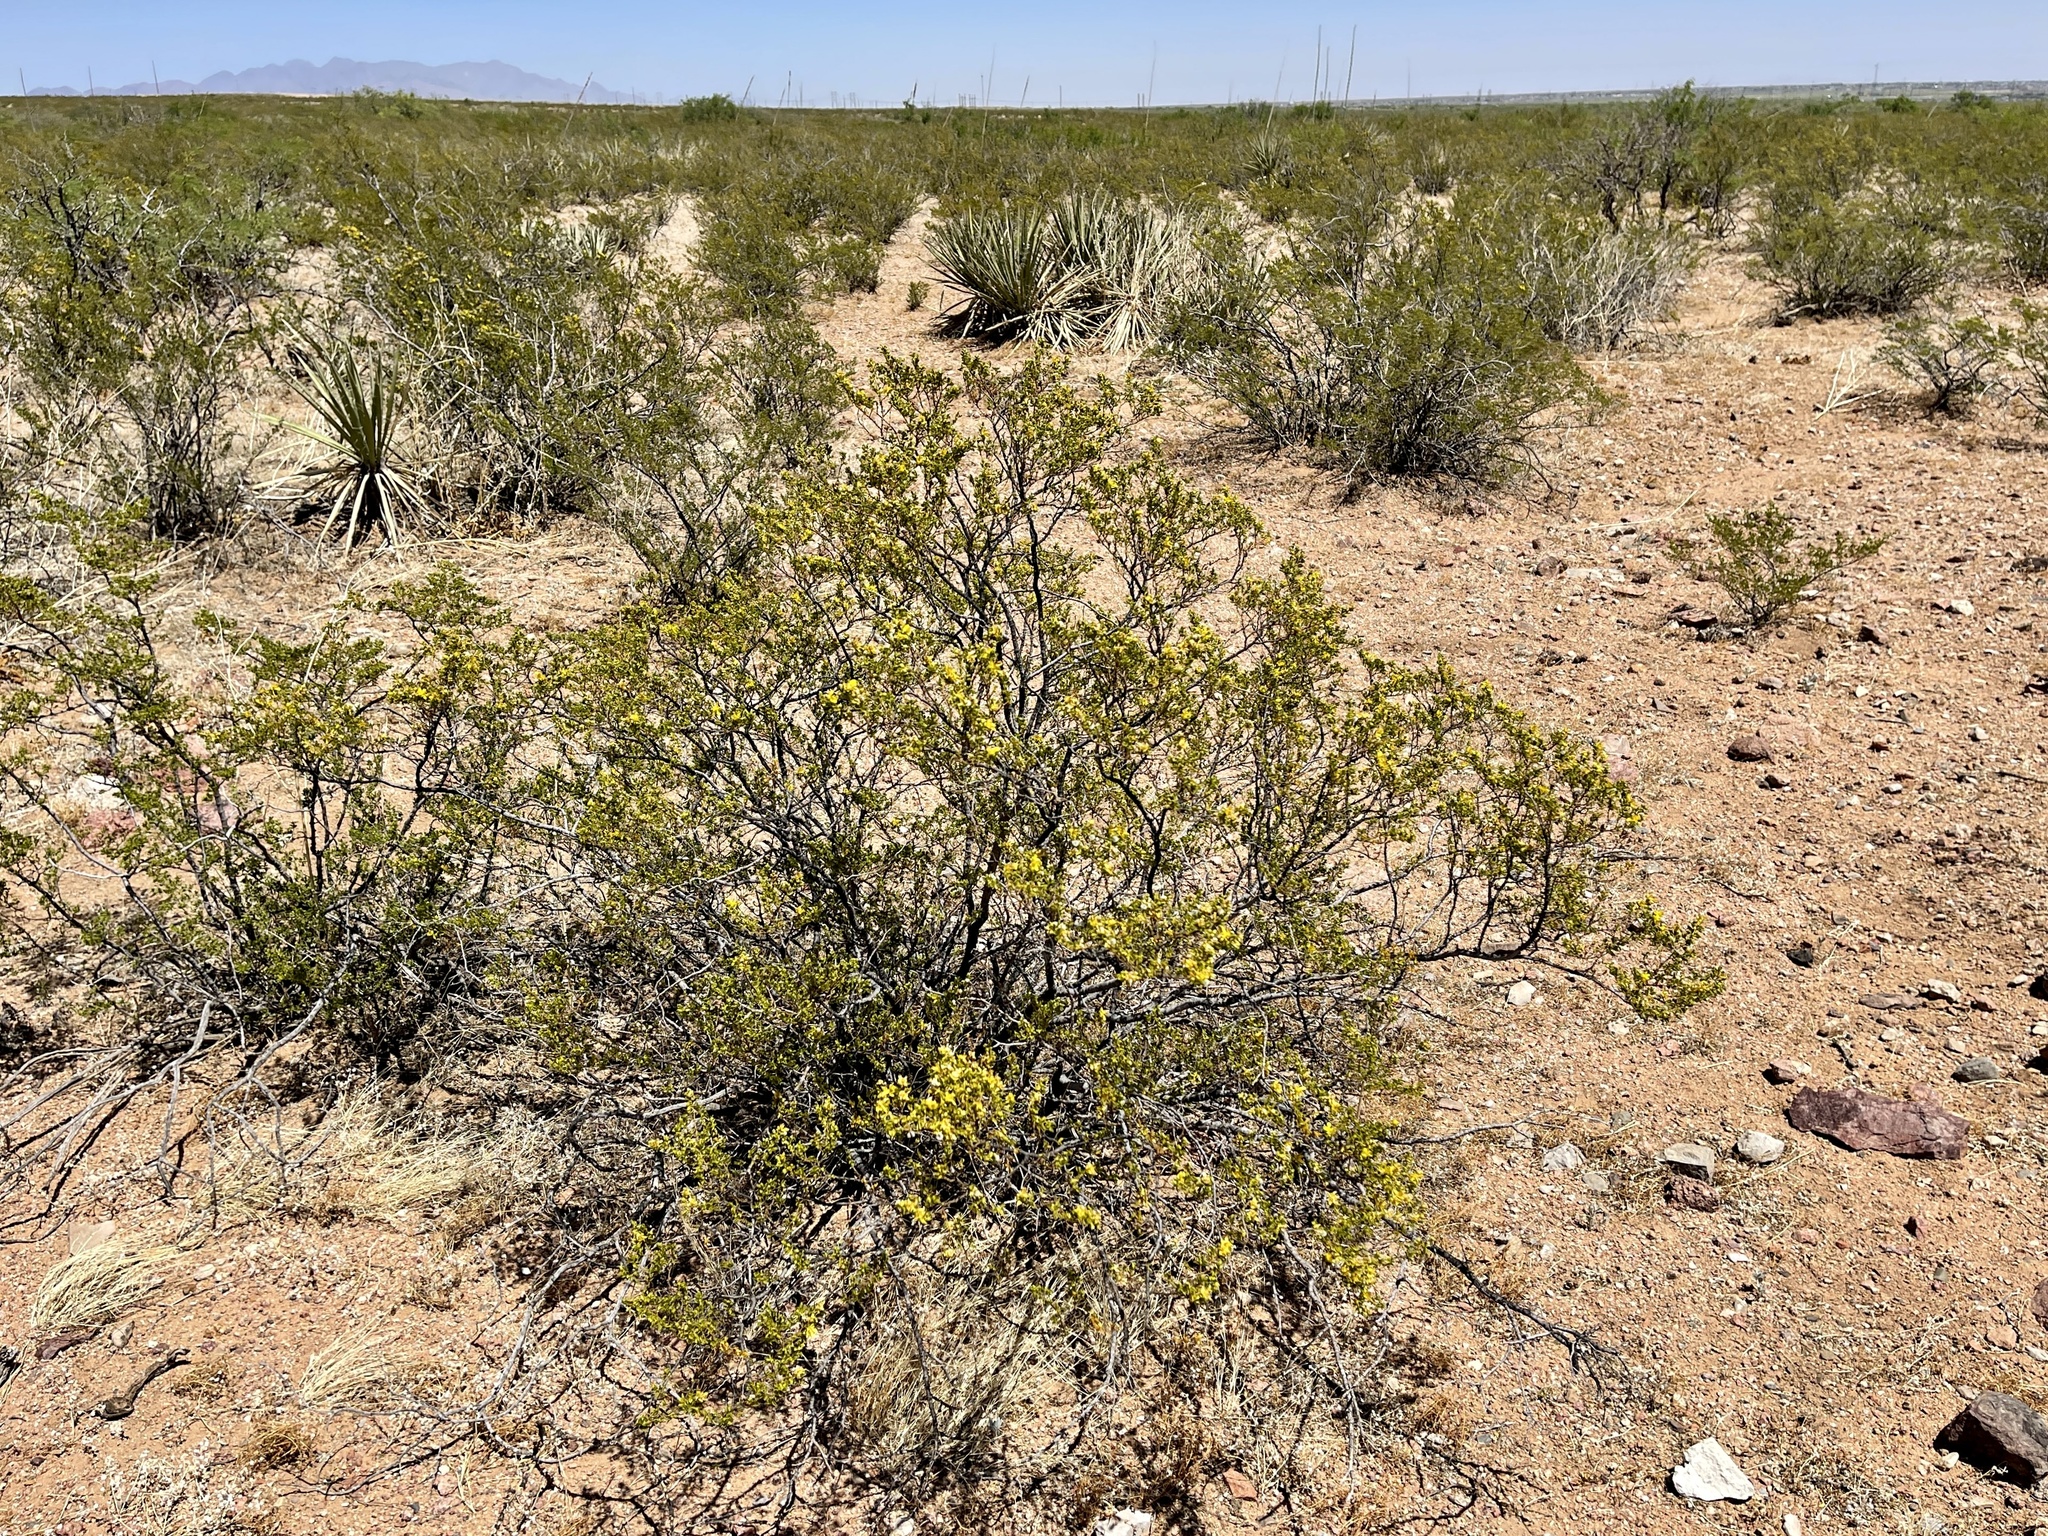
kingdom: Plantae
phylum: Tracheophyta
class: Magnoliopsida
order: Zygophyllales
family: Zygophyllaceae
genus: Larrea
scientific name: Larrea tridentata
